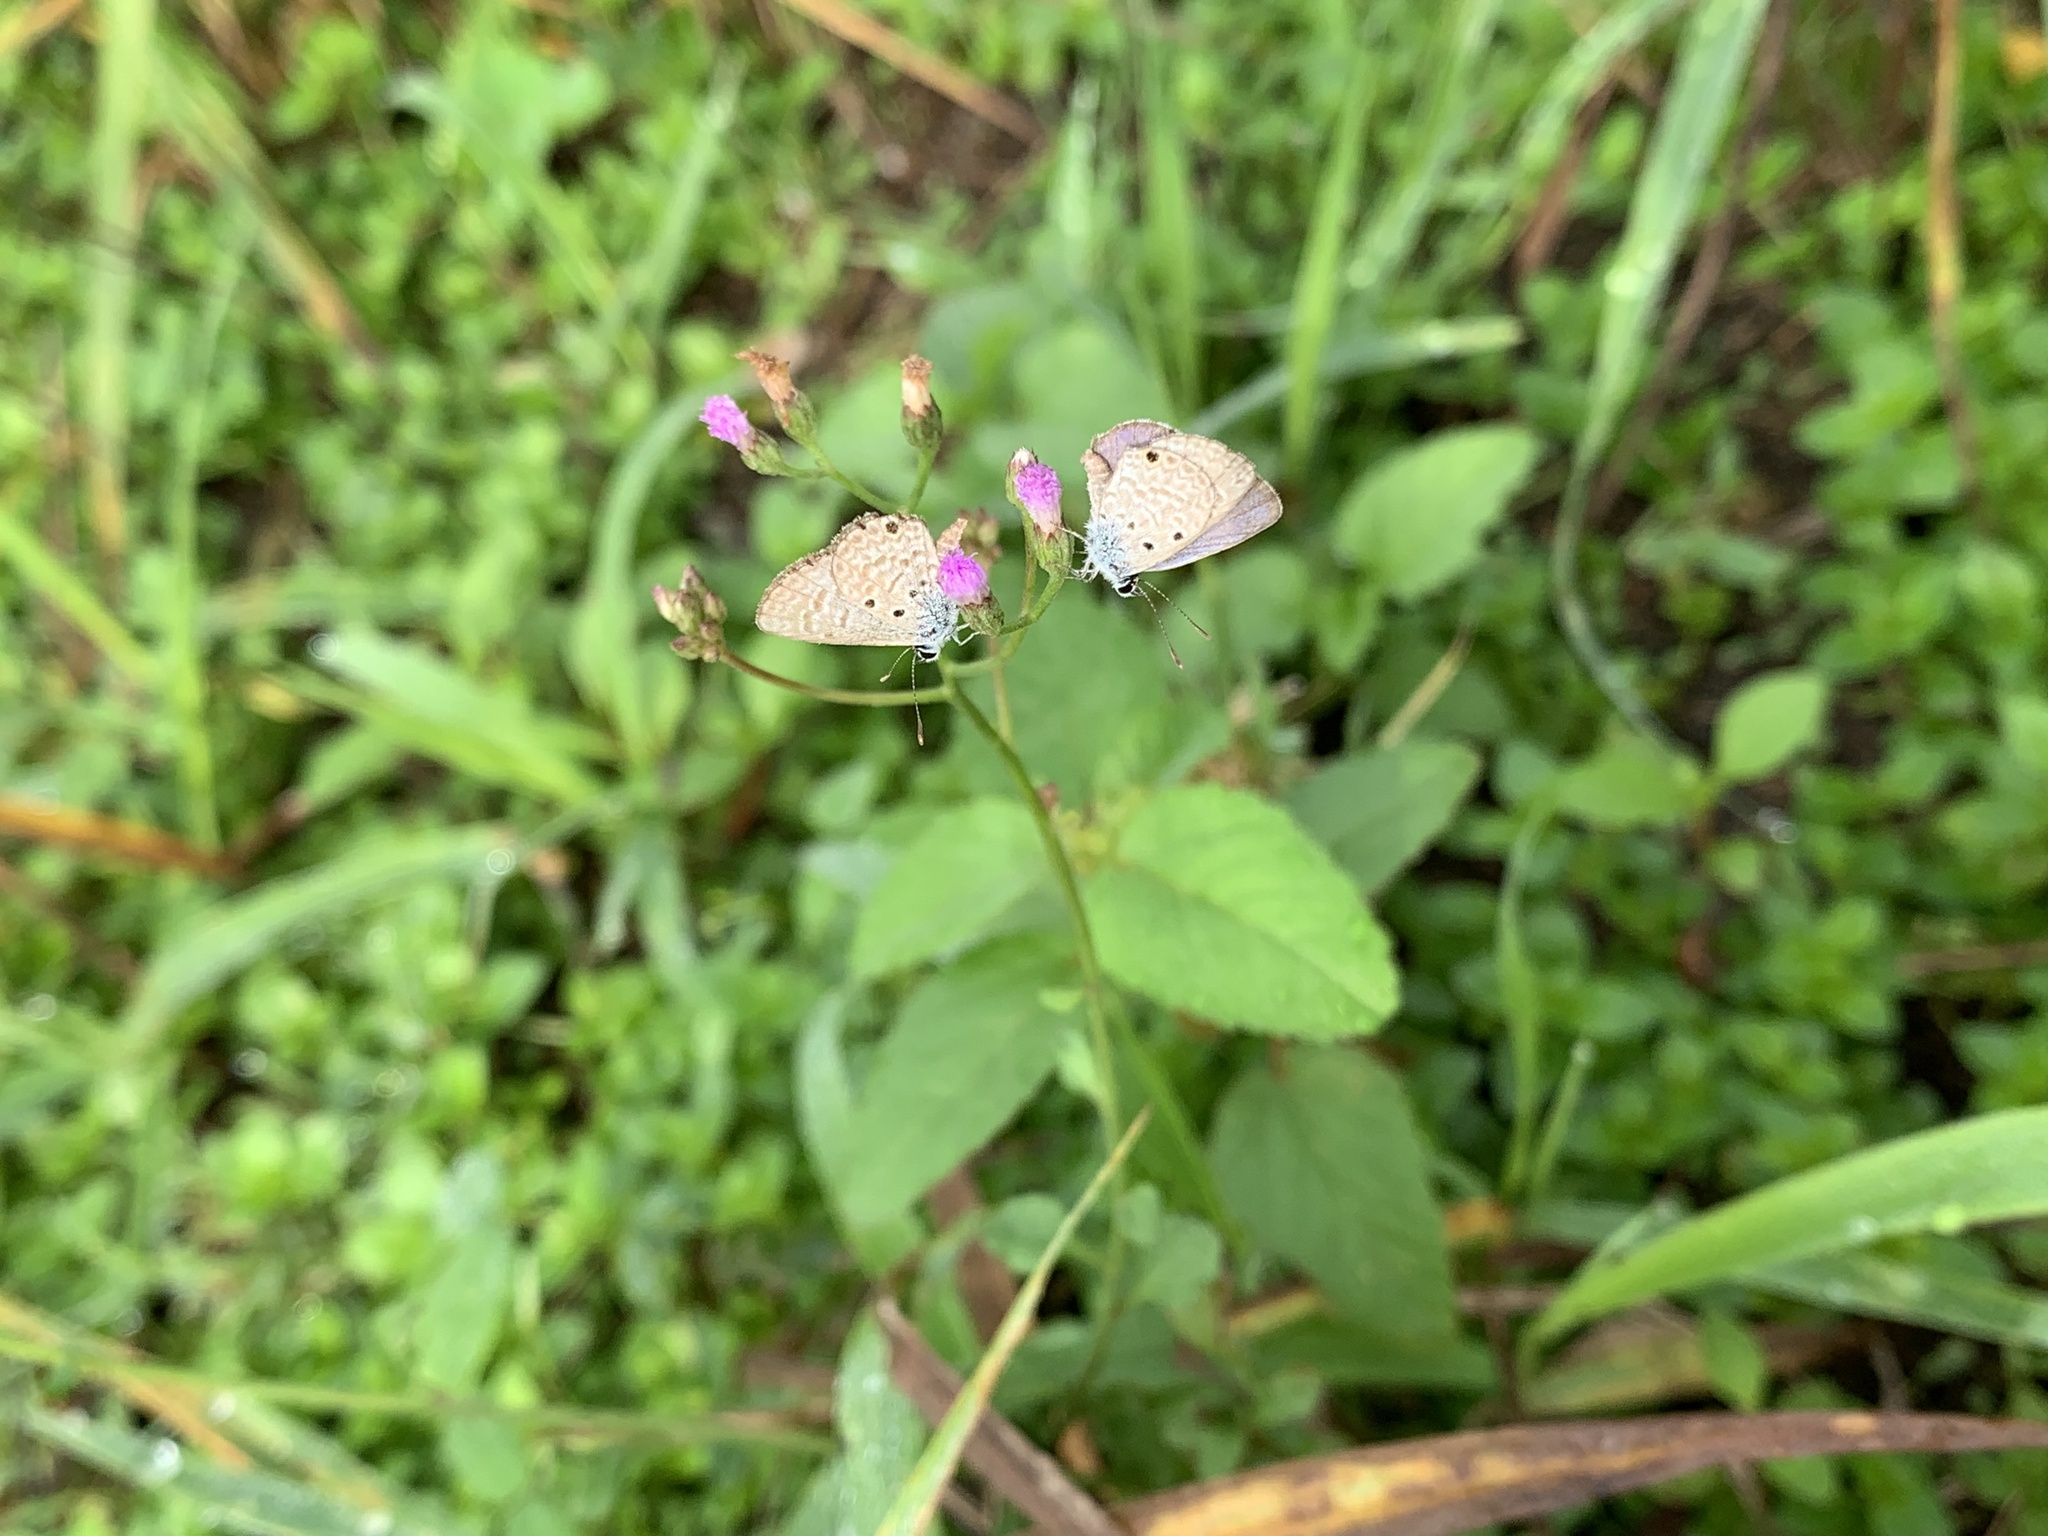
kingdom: Animalia
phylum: Arthropoda
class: Insecta
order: Lepidoptera
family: Lycaenidae
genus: Hemiargus
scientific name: Hemiargus hanno
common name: Common blue
